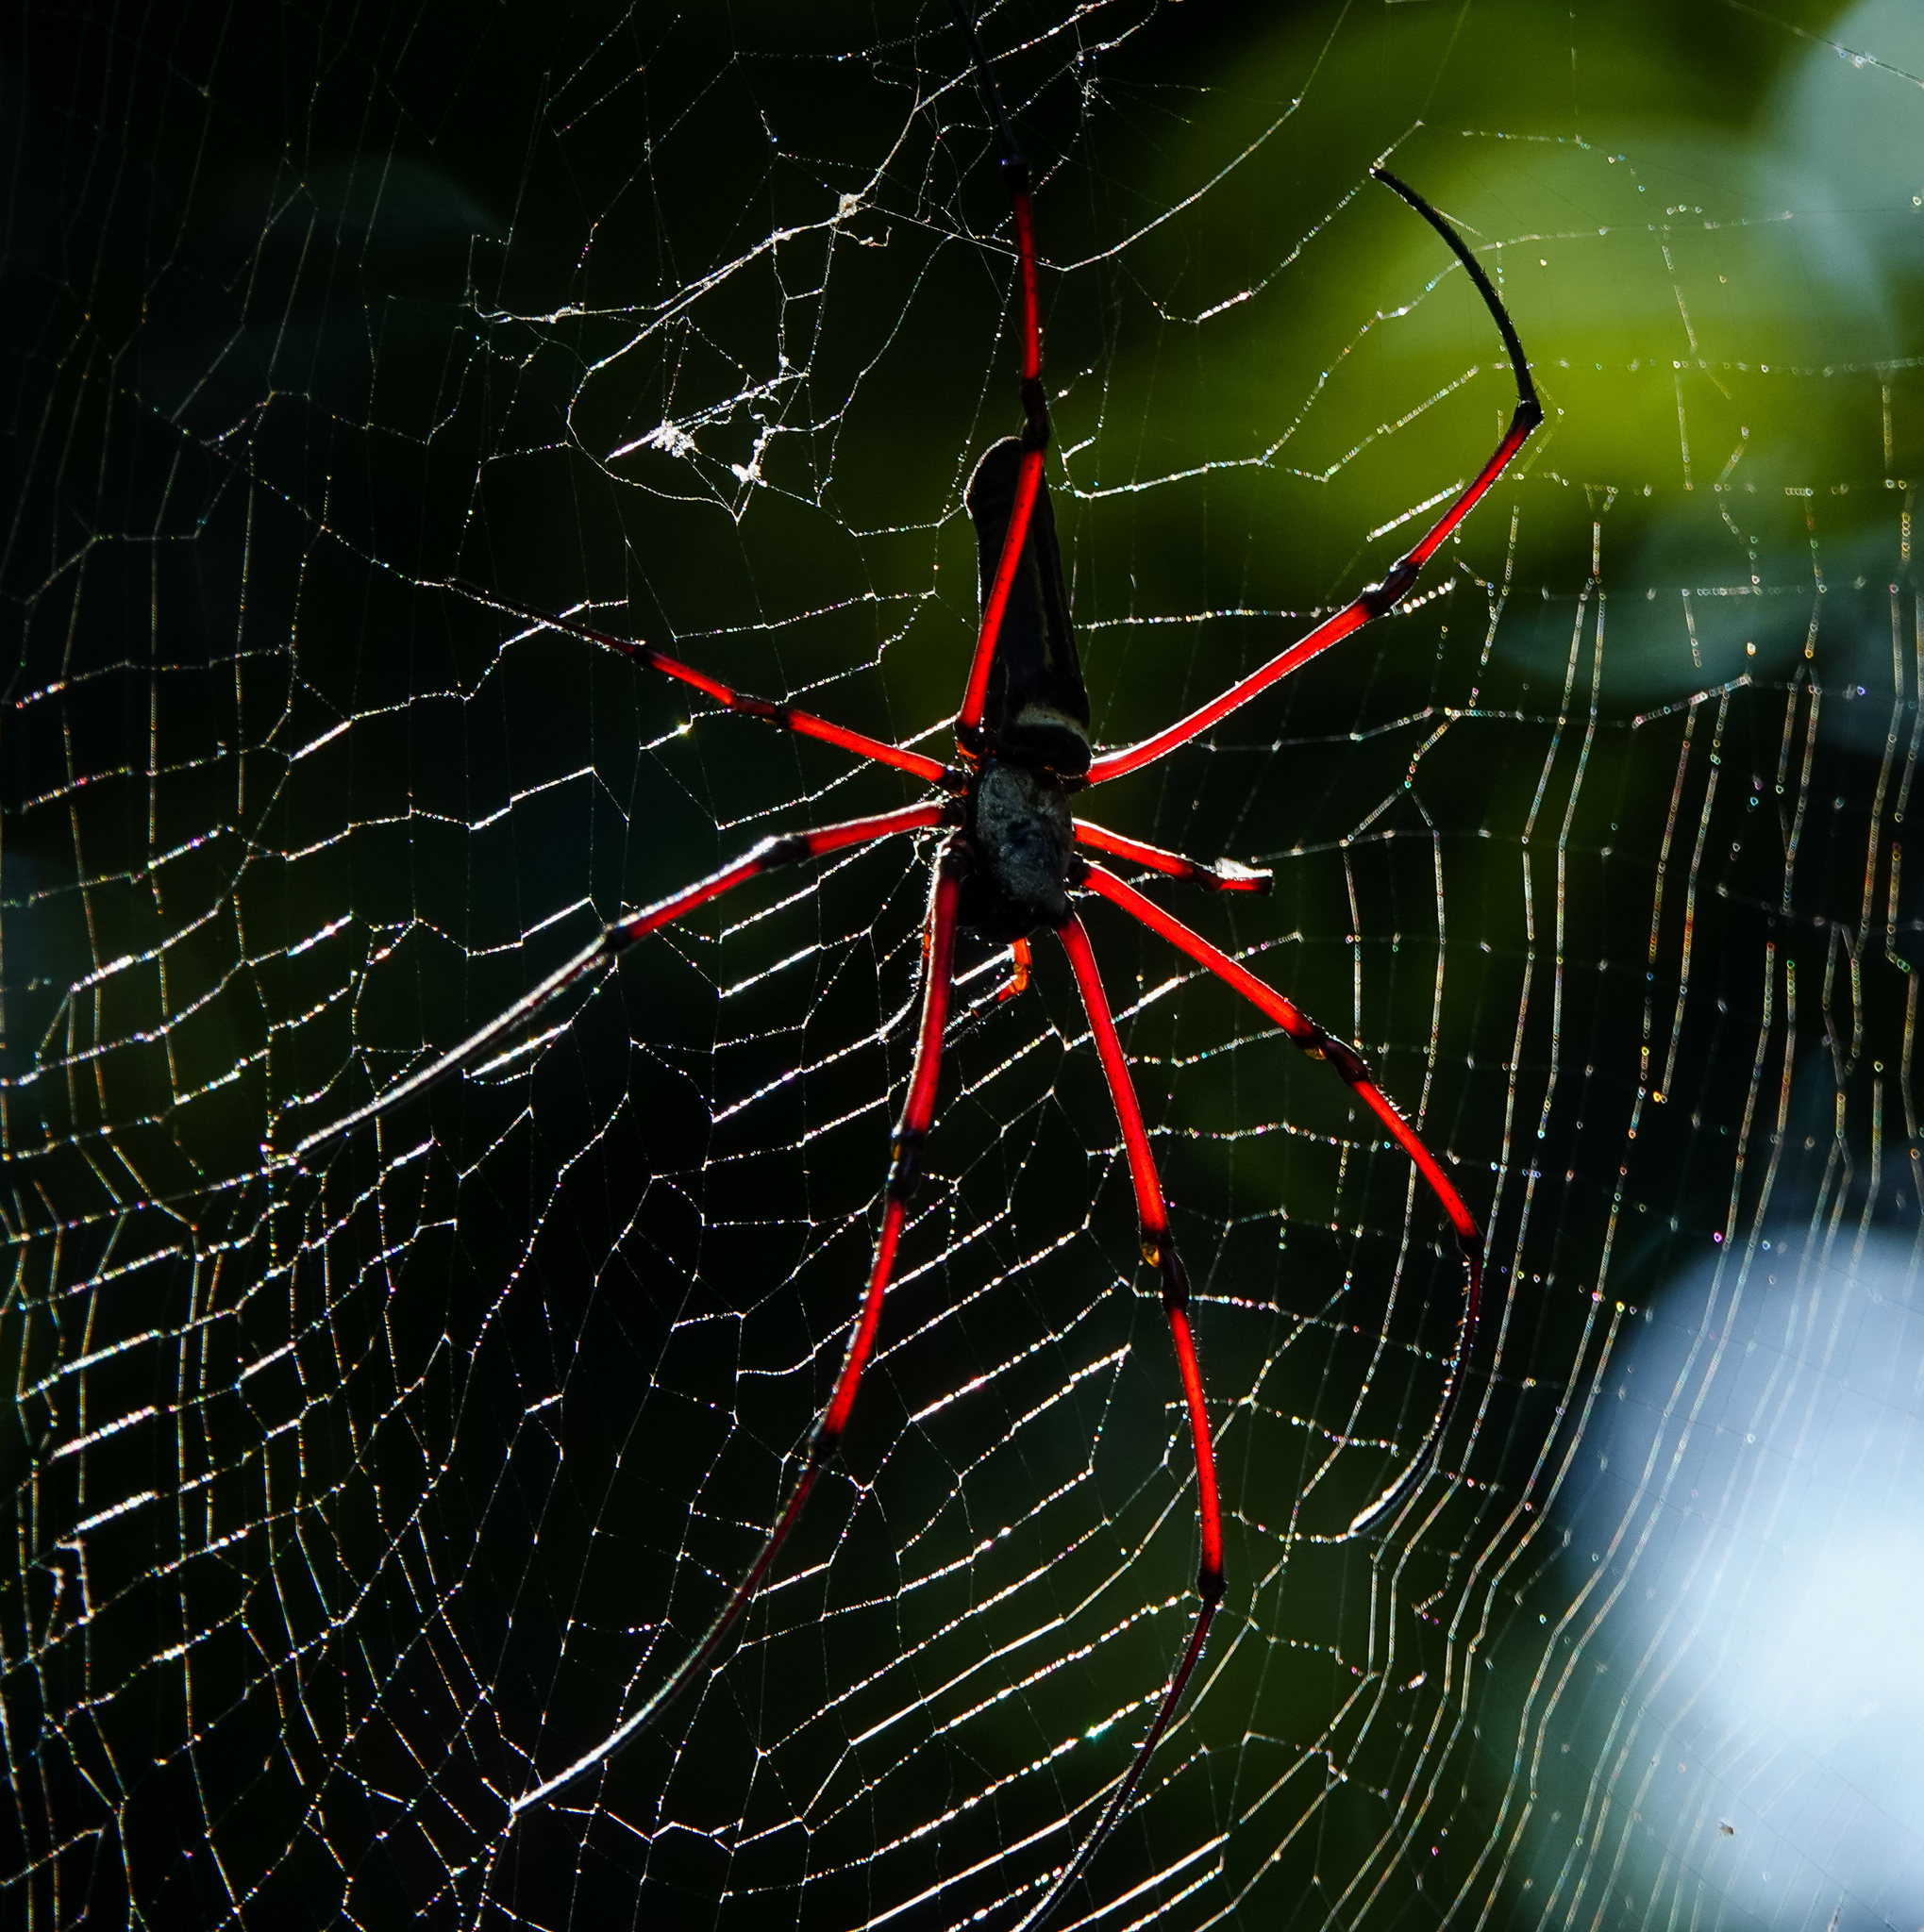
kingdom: Animalia
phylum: Arthropoda
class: Arachnida
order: Araneae
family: Araneidae
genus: Nephila
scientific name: Nephila kuhli
